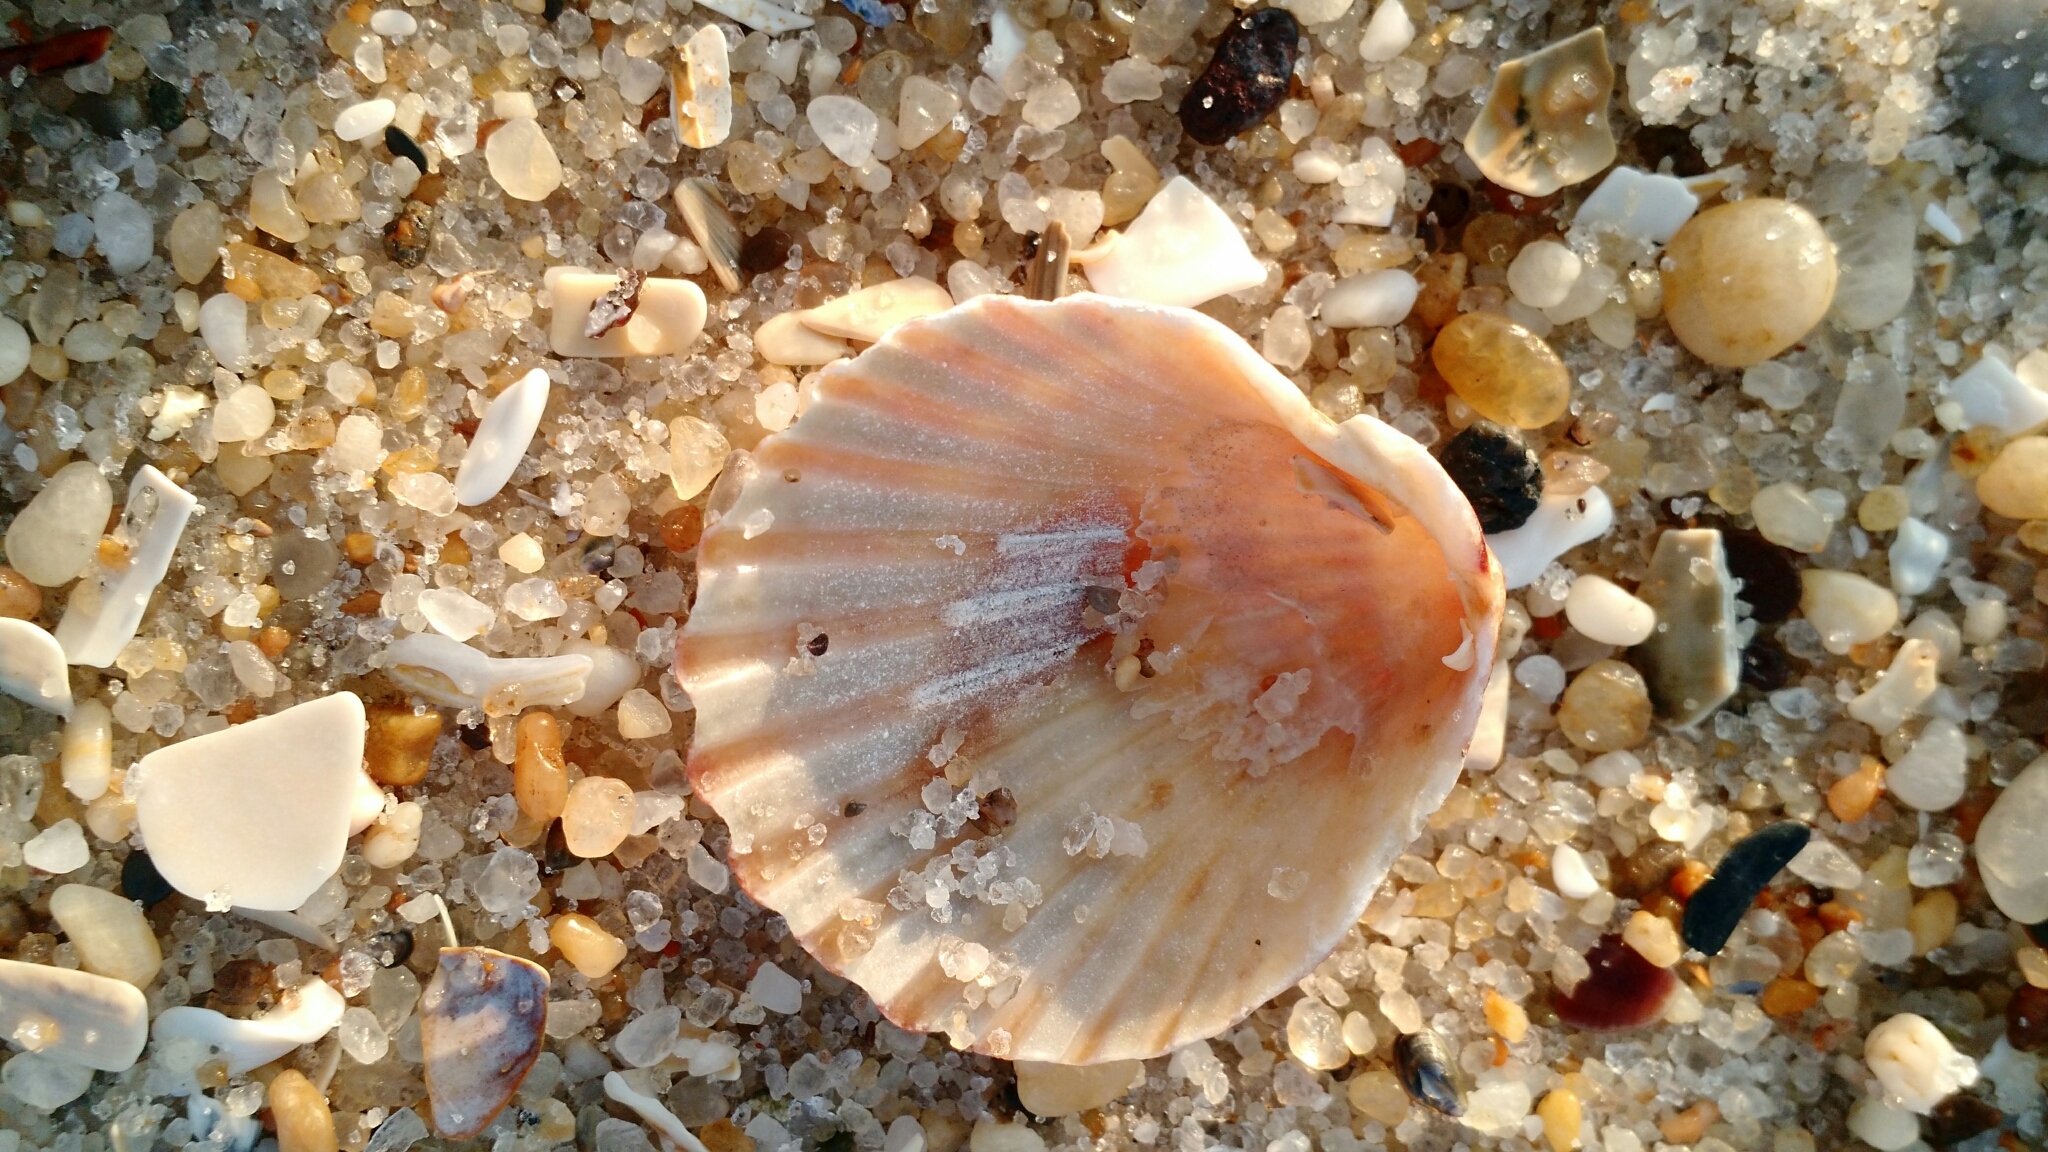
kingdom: Animalia
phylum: Mollusca
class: Bivalvia
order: Pectinida
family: Pectinidae
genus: Argopecten
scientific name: Argopecten irradians
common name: Atlantic bay scallop
